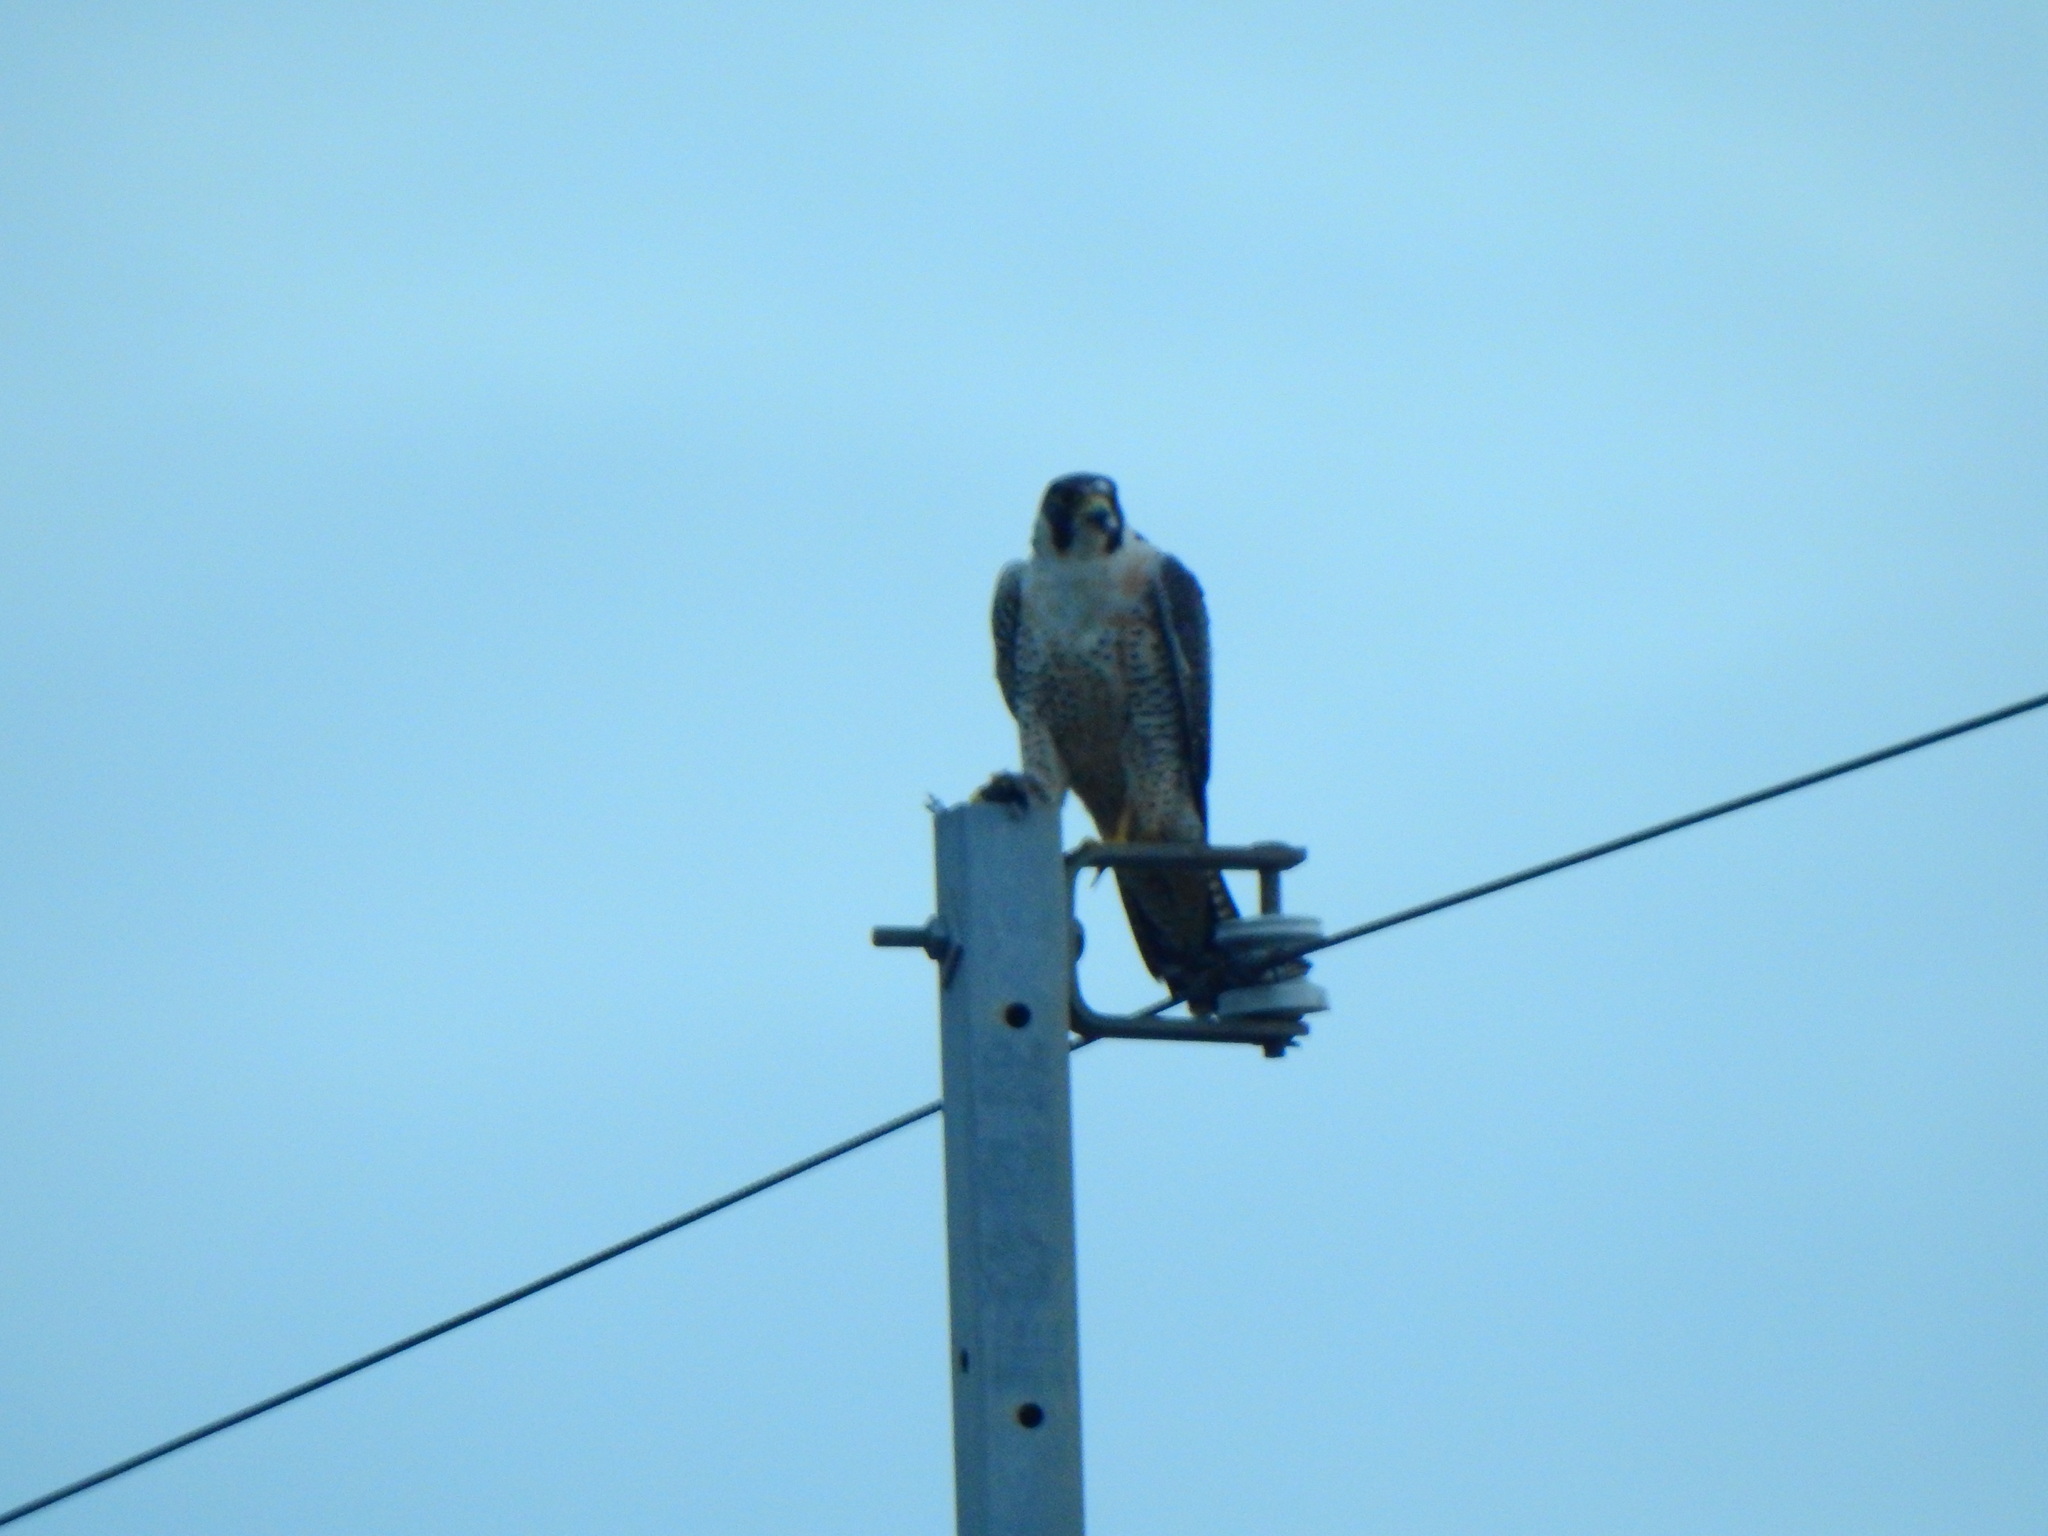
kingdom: Animalia
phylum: Chordata
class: Aves
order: Falconiformes
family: Falconidae
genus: Falco
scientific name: Falco peregrinus
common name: Peregrine falcon
